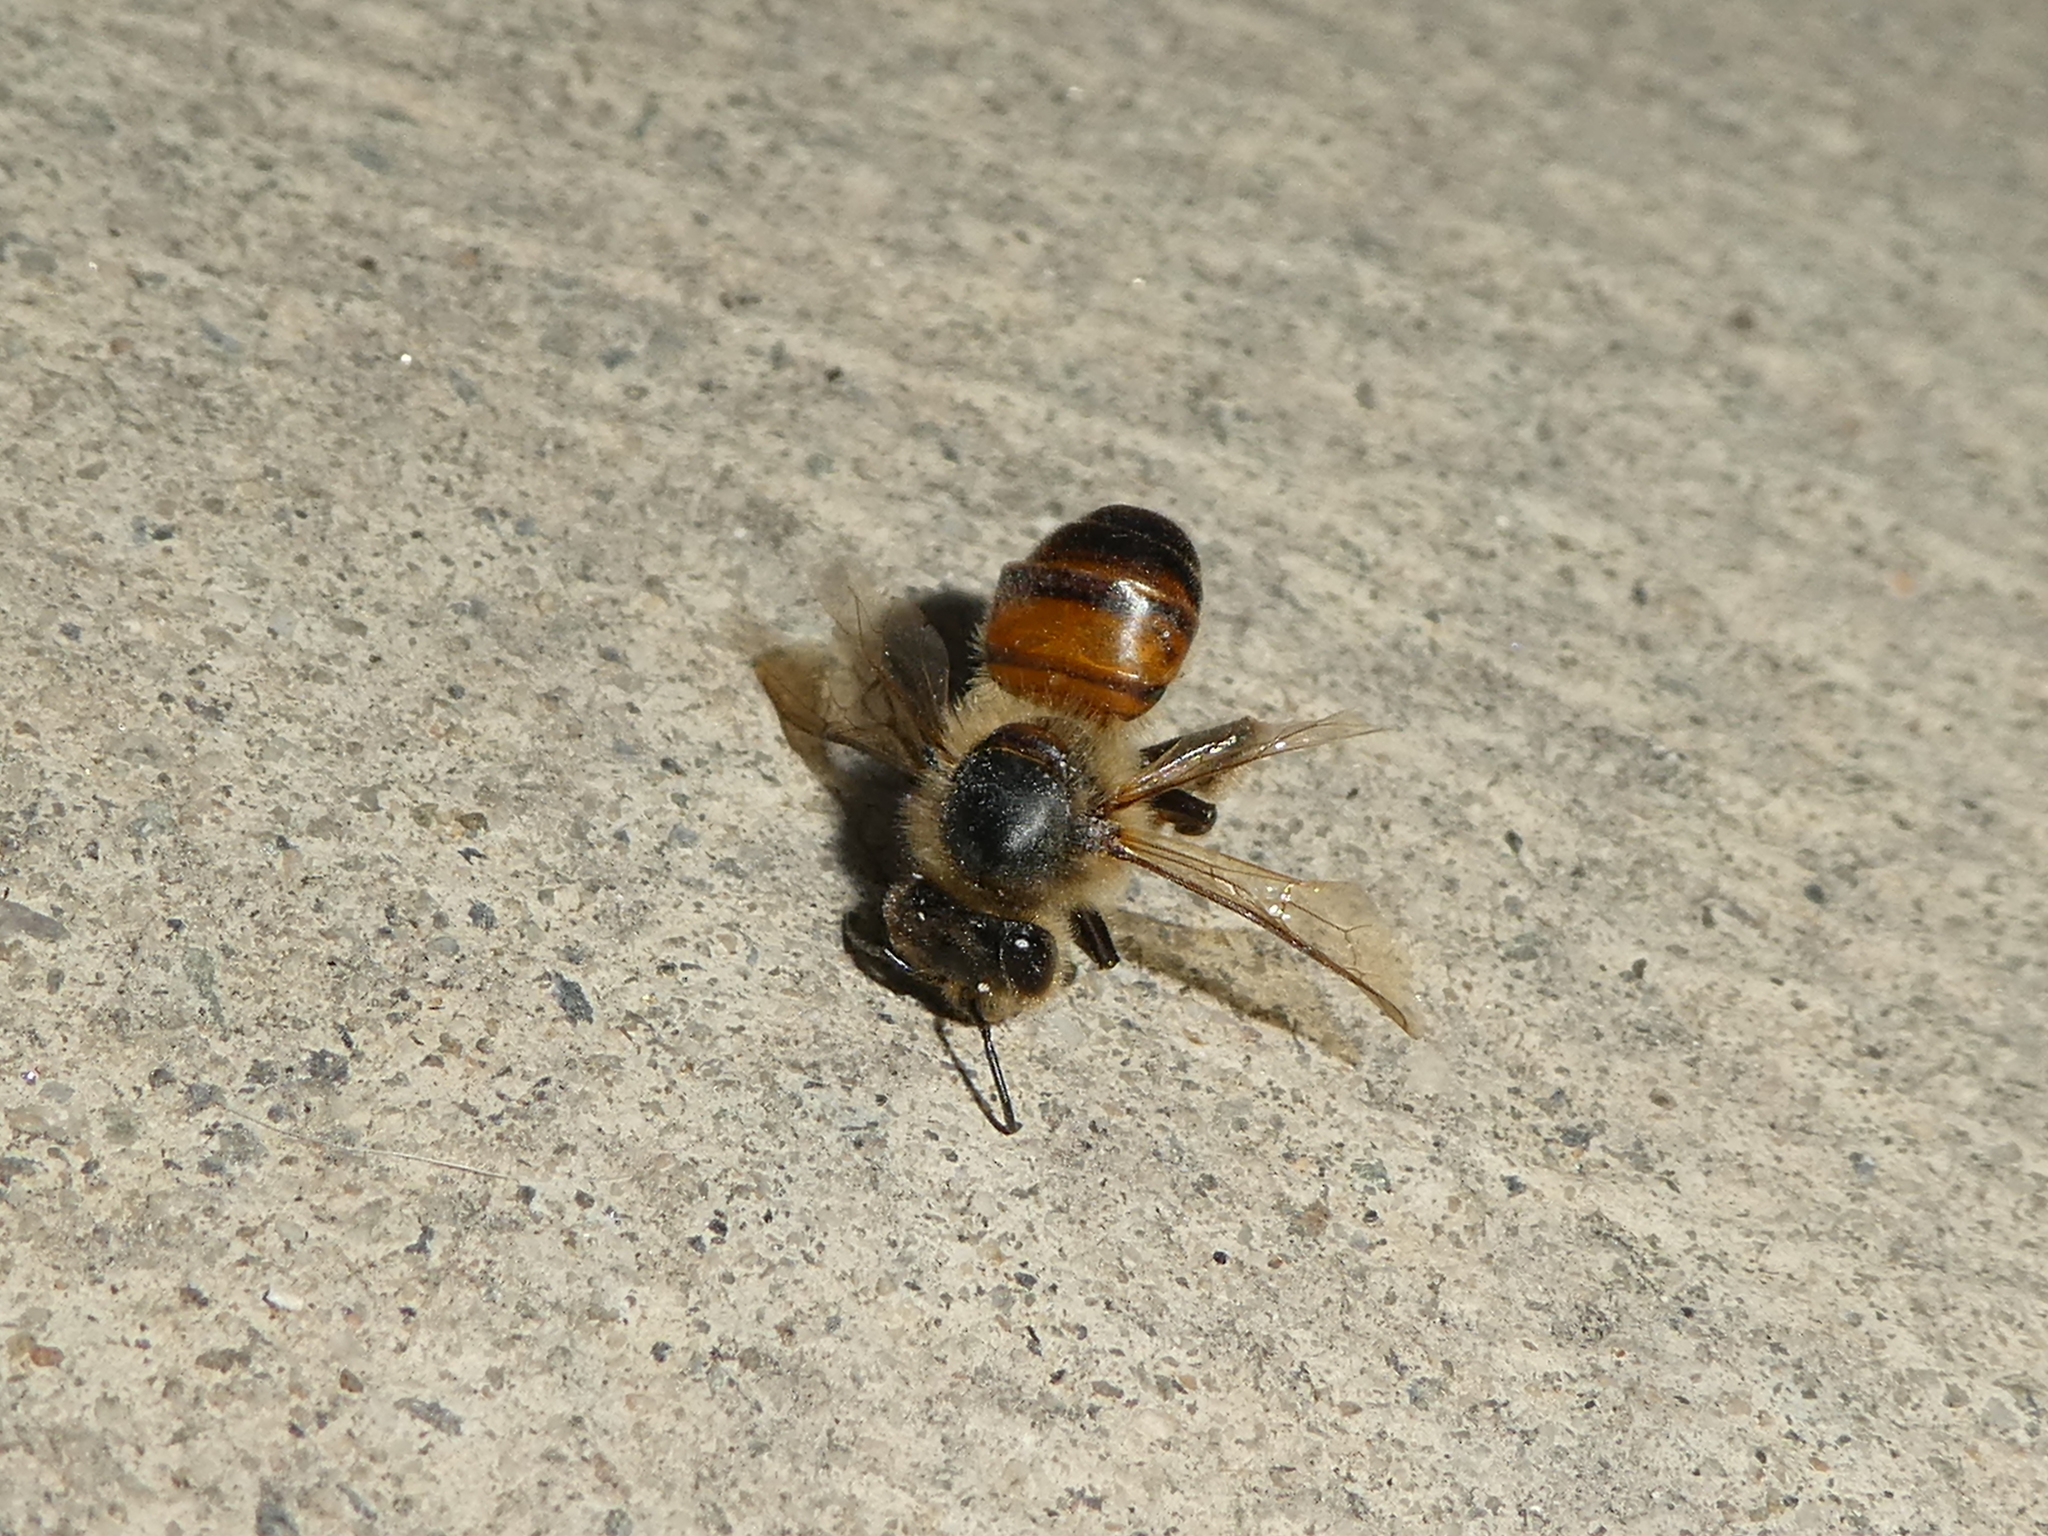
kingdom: Animalia
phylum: Arthropoda
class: Insecta
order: Hymenoptera
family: Apidae
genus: Apis
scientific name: Apis mellifera
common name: Honey bee
